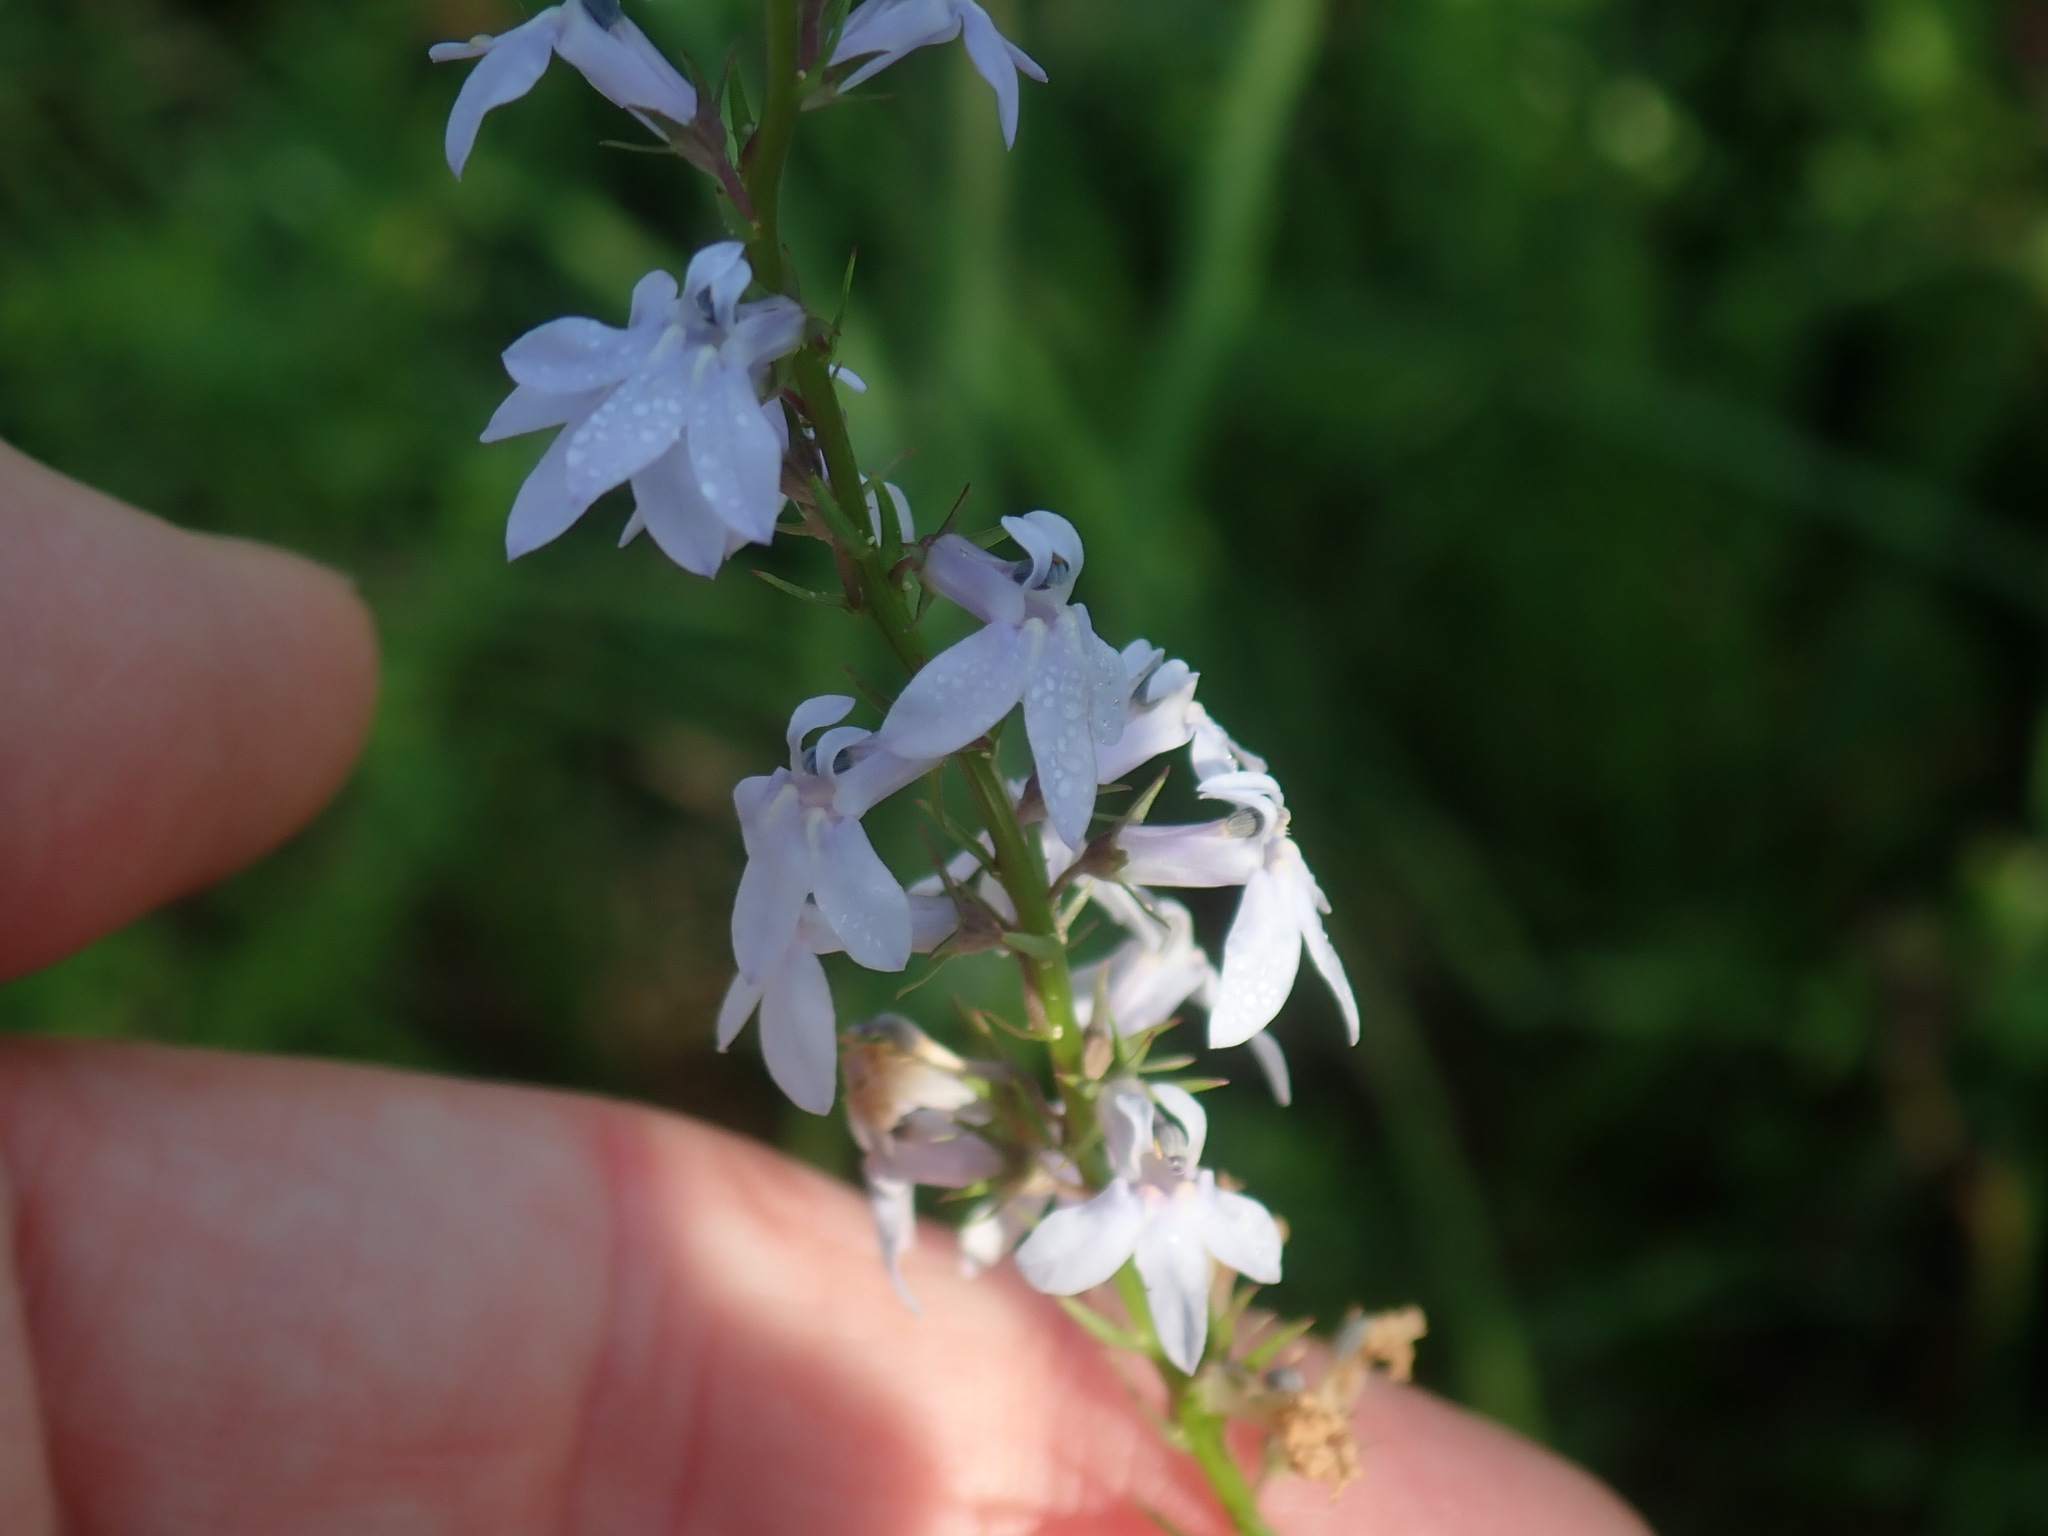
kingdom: Plantae
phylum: Tracheophyta
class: Magnoliopsida
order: Asterales
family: Campanulaceae
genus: Lobelia
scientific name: Lobelia spicata
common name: Pale-spike lobelia
